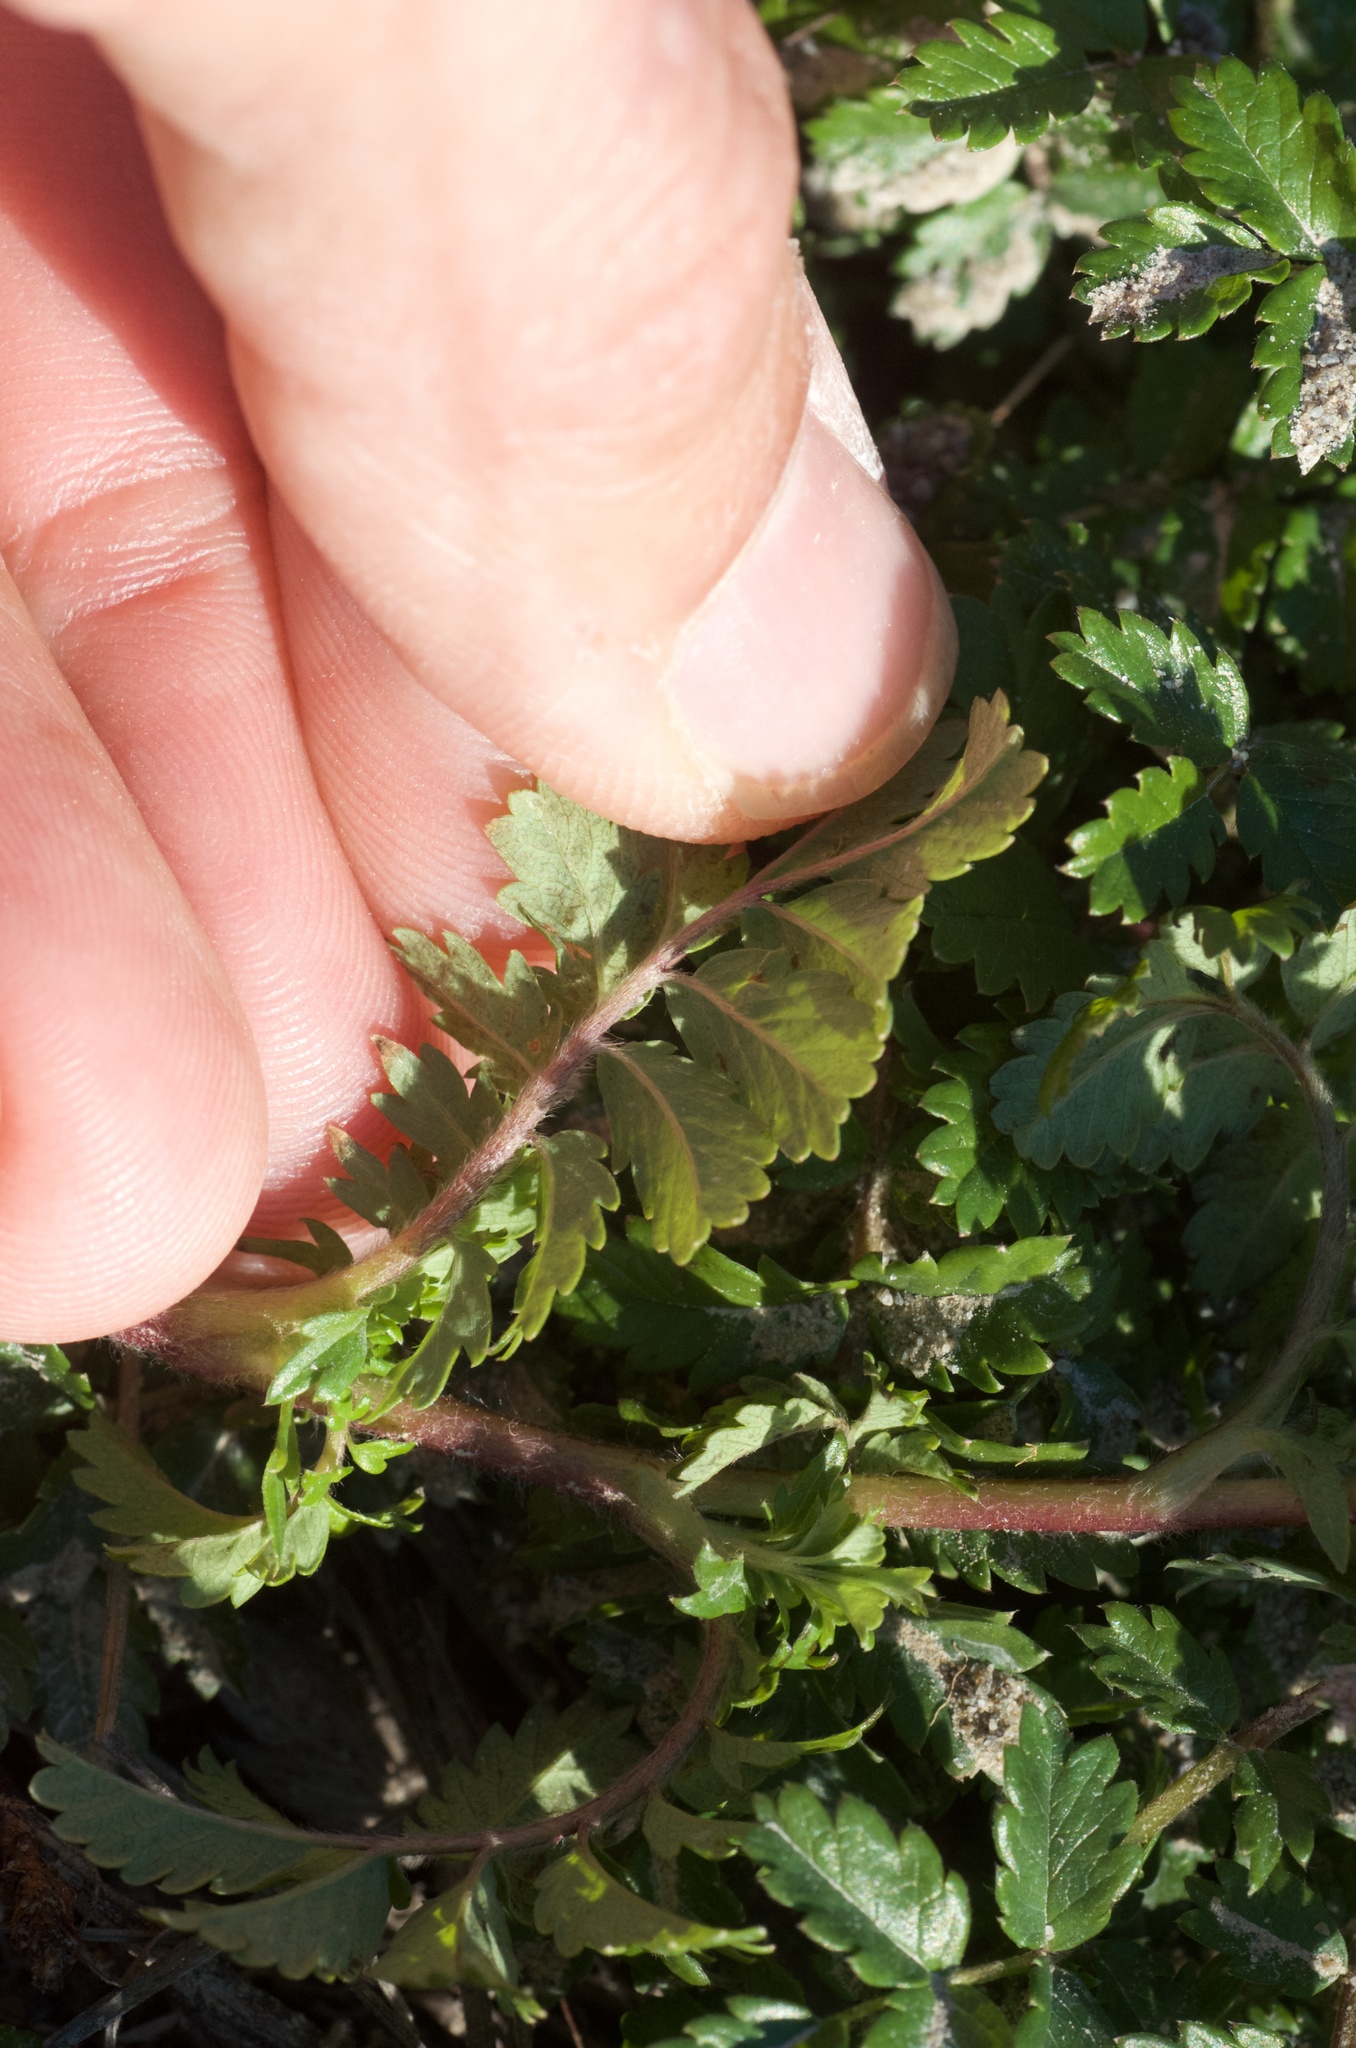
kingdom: Plantae
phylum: Tracheophyta
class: Magnoliopsida
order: Rosales
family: Rosaceae
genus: Acaena
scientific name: Acaena novae-zelandiae
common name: Pirri-pirri-bur
